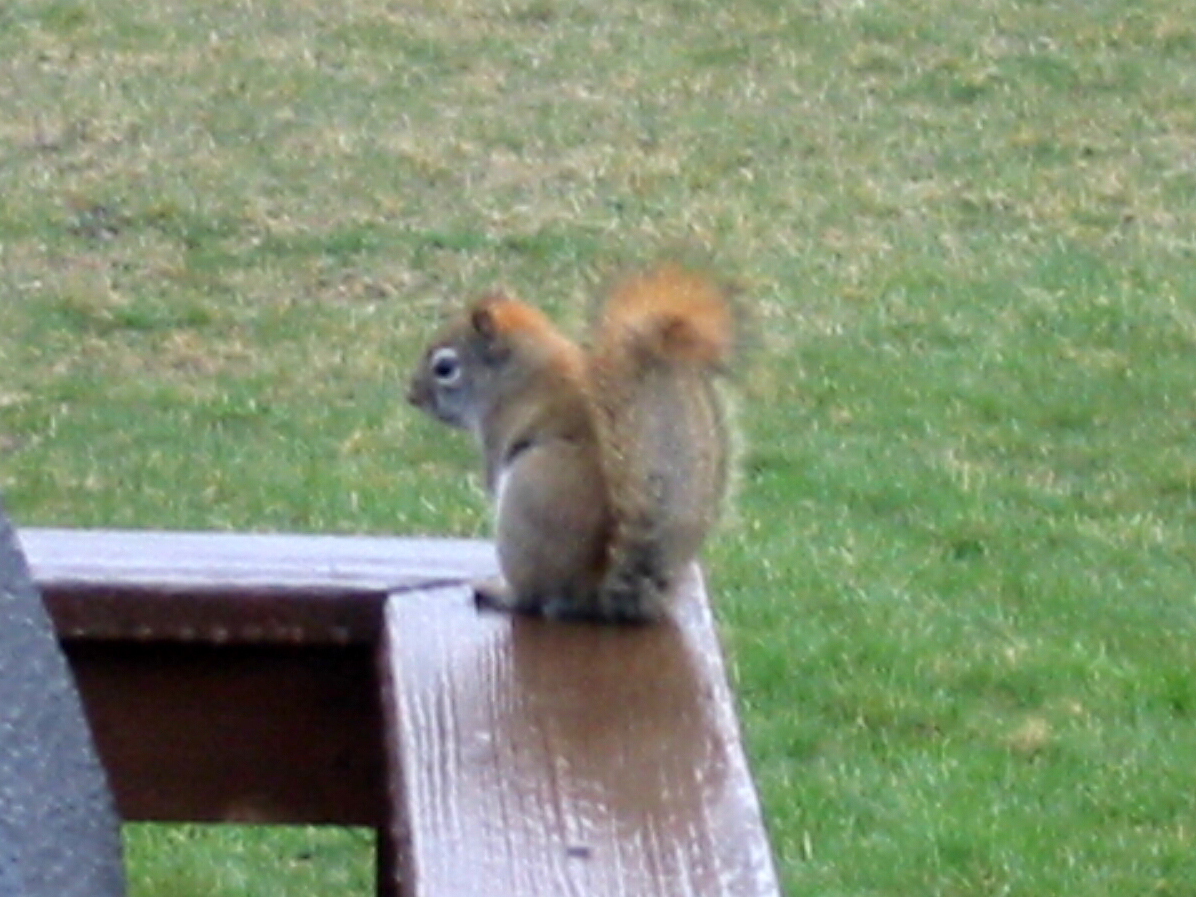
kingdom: Animalia
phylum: Chordata
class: Mammalia
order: Rodentia
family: Sciuridae
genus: Tamiasciurus
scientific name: Tamiasciurus hudsonicus
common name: Red squirrel
